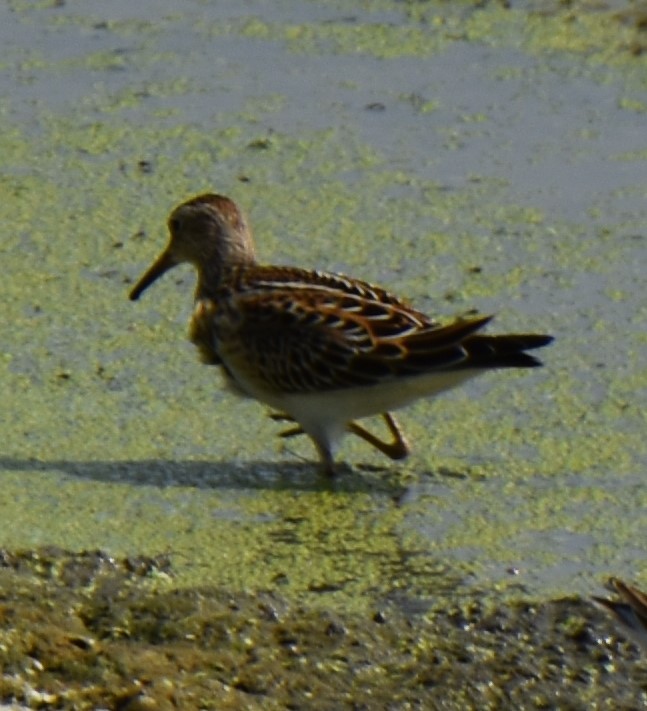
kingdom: Animalia
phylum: Chordata
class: Aves
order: Charadriiformes
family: Scolopacidae
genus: Calidris
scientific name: Calidris melanotos
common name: Pectoral sandpiper
